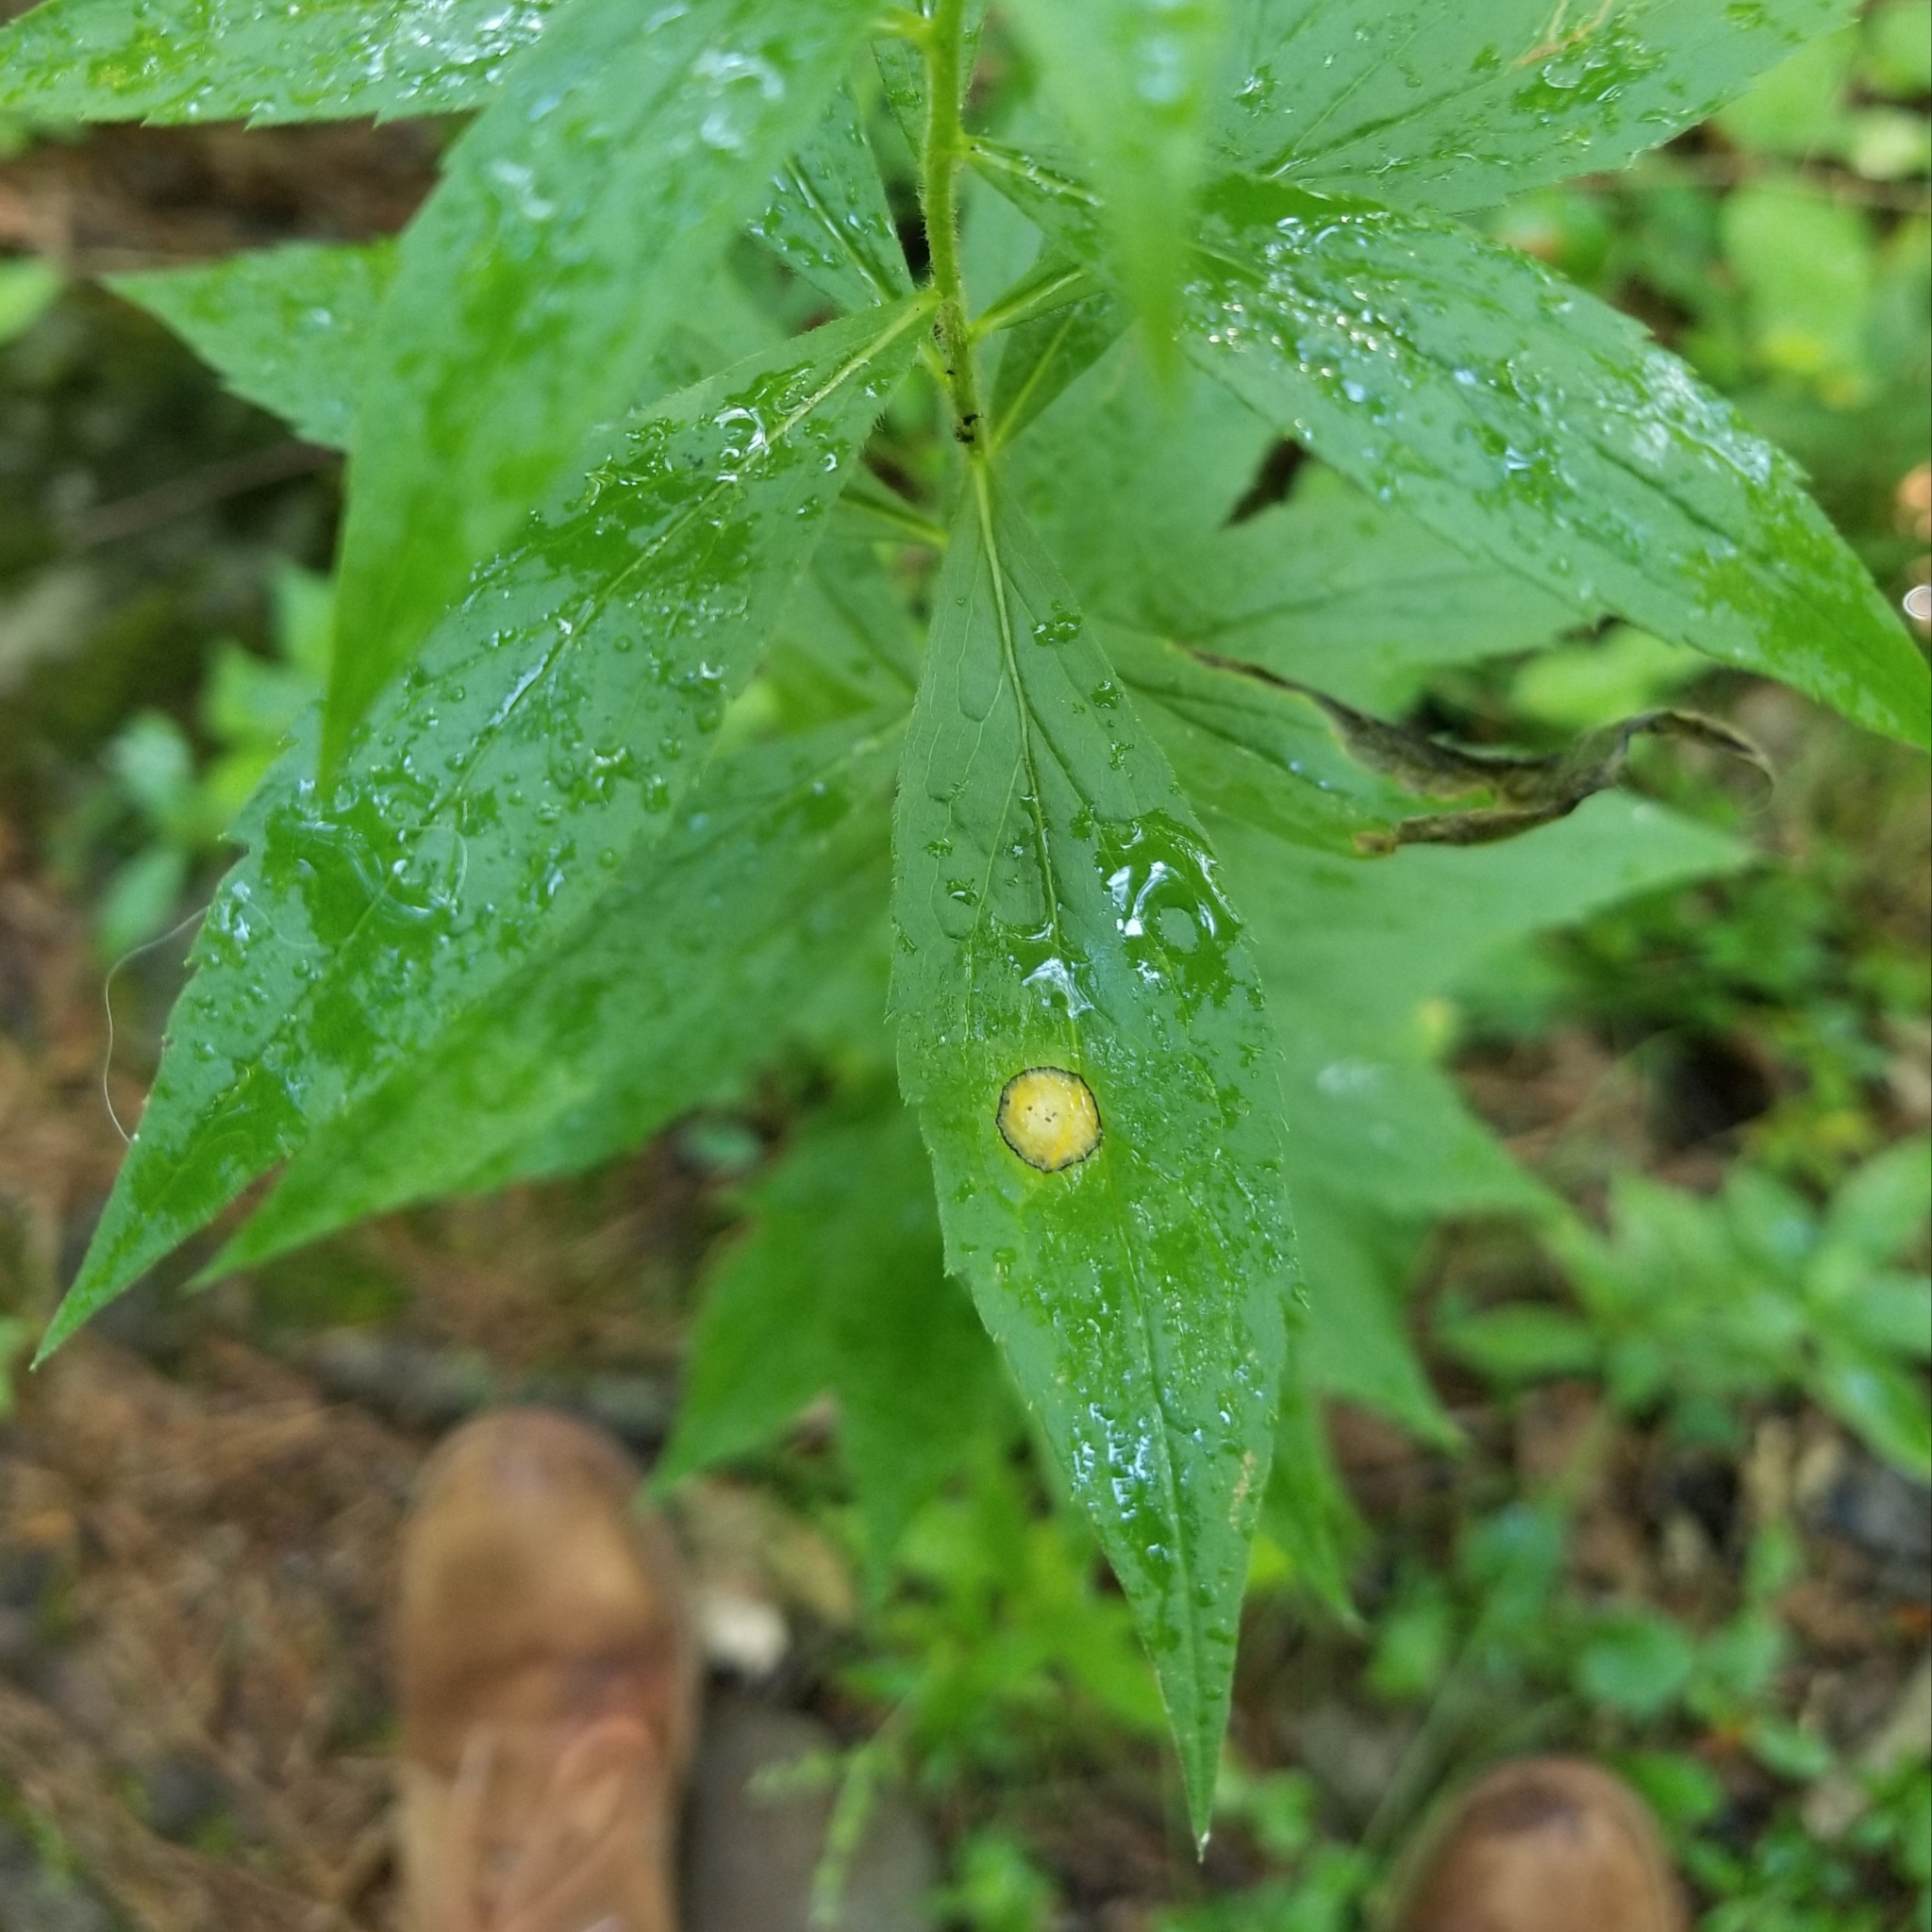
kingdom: Animalia
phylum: Arthropoda
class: Insecta
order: Diptera
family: Cecidomyiidae
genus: Asteromyia
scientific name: Asteromyia carbonifera
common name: Carbonifera goldenrod gall midge
